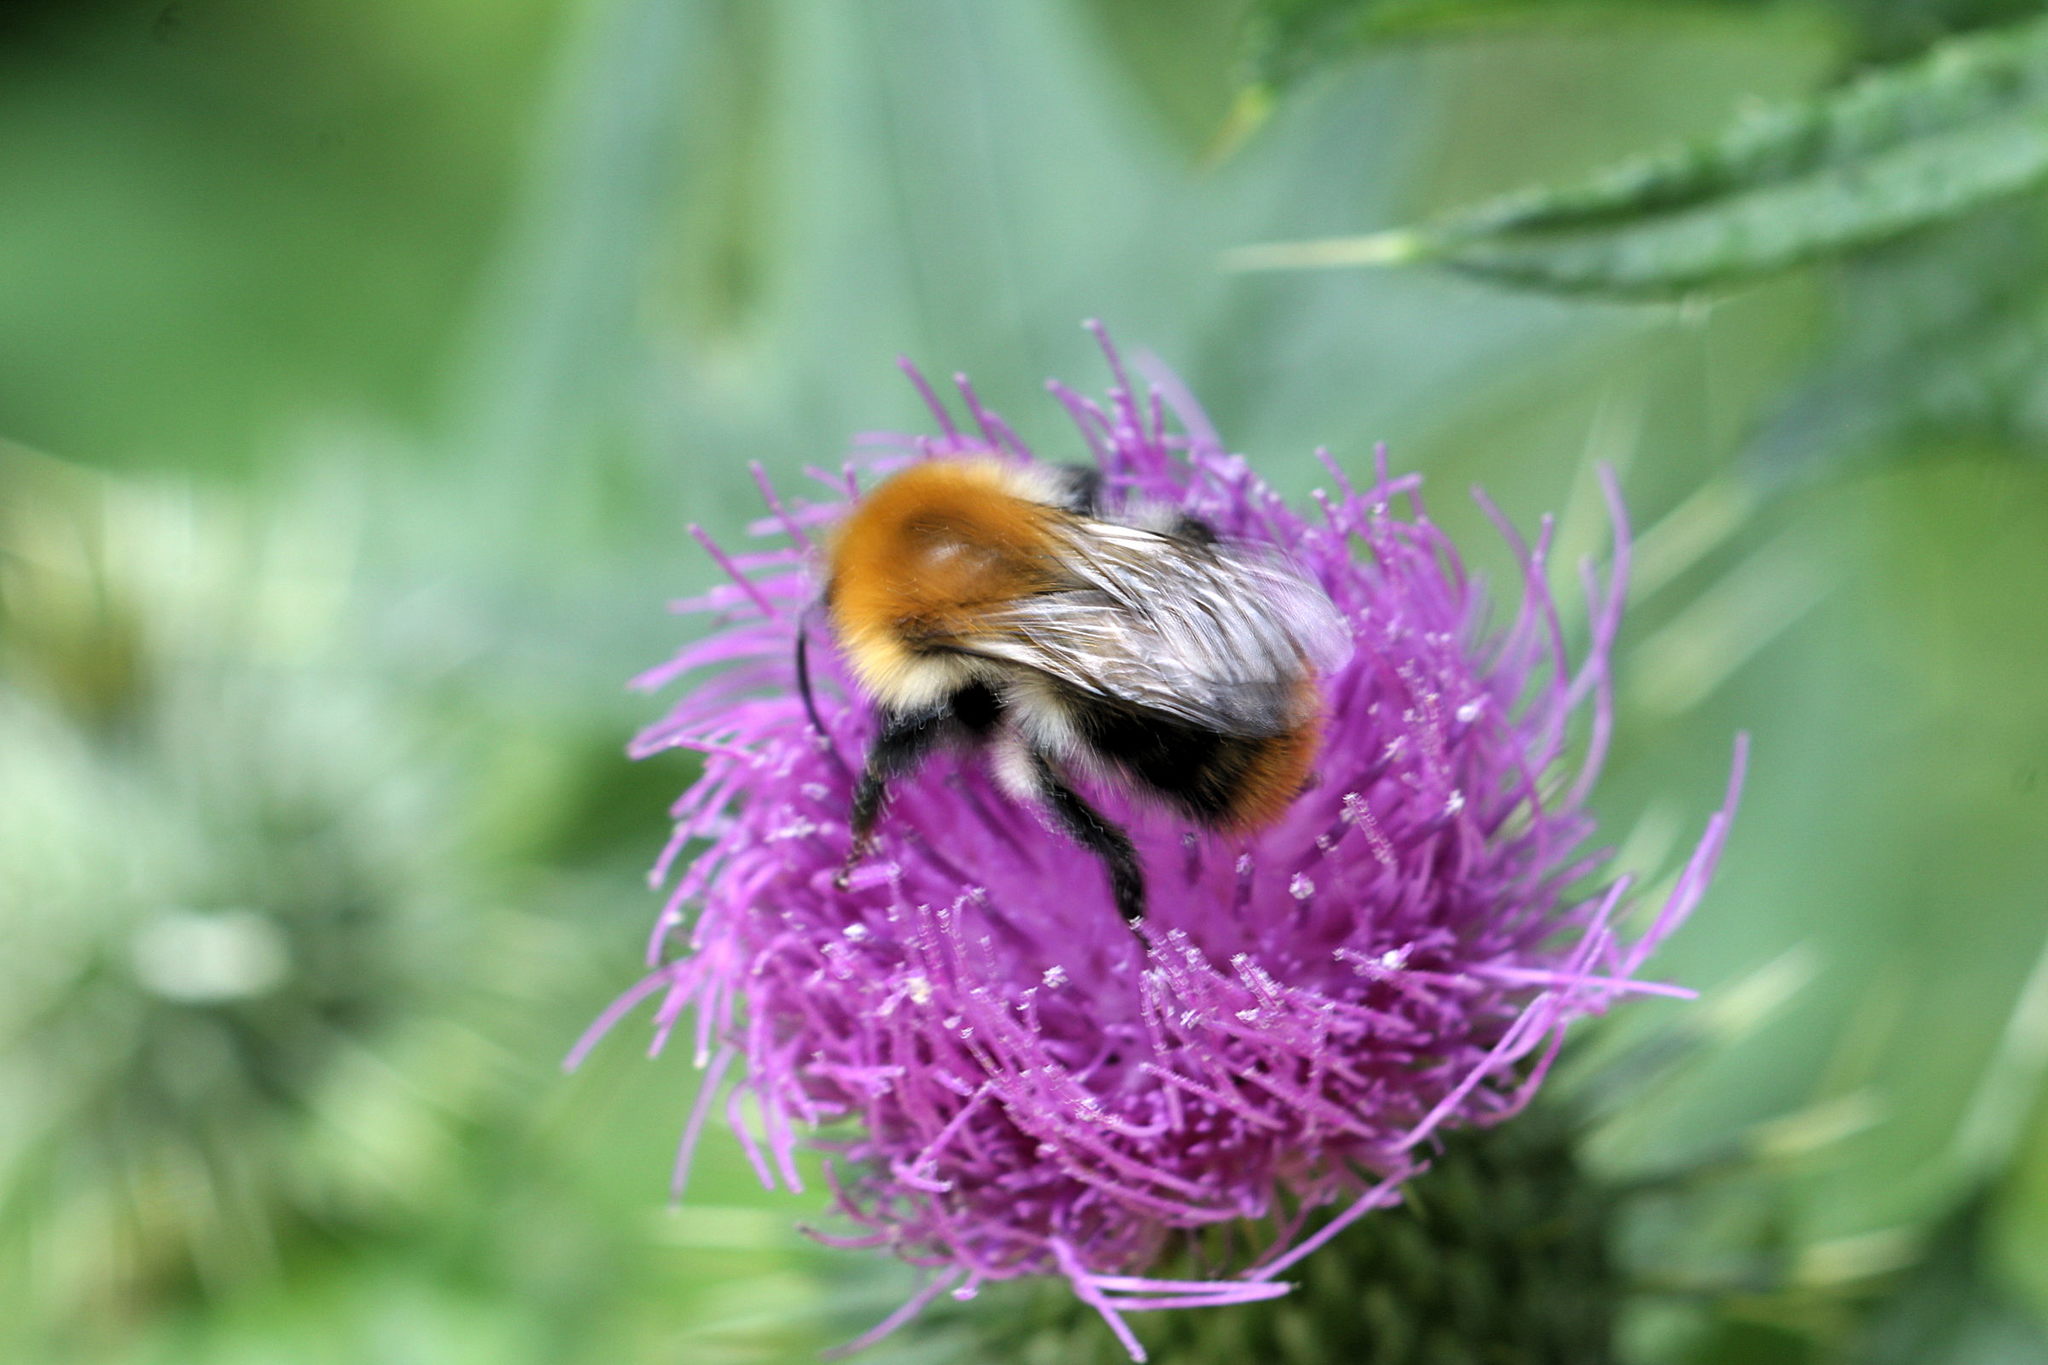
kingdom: Animalia
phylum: Arthropoda
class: Insecta
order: Hymenoptera
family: Apidae
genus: Bombus
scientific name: Bombus pascuorum
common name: Common carder bee
